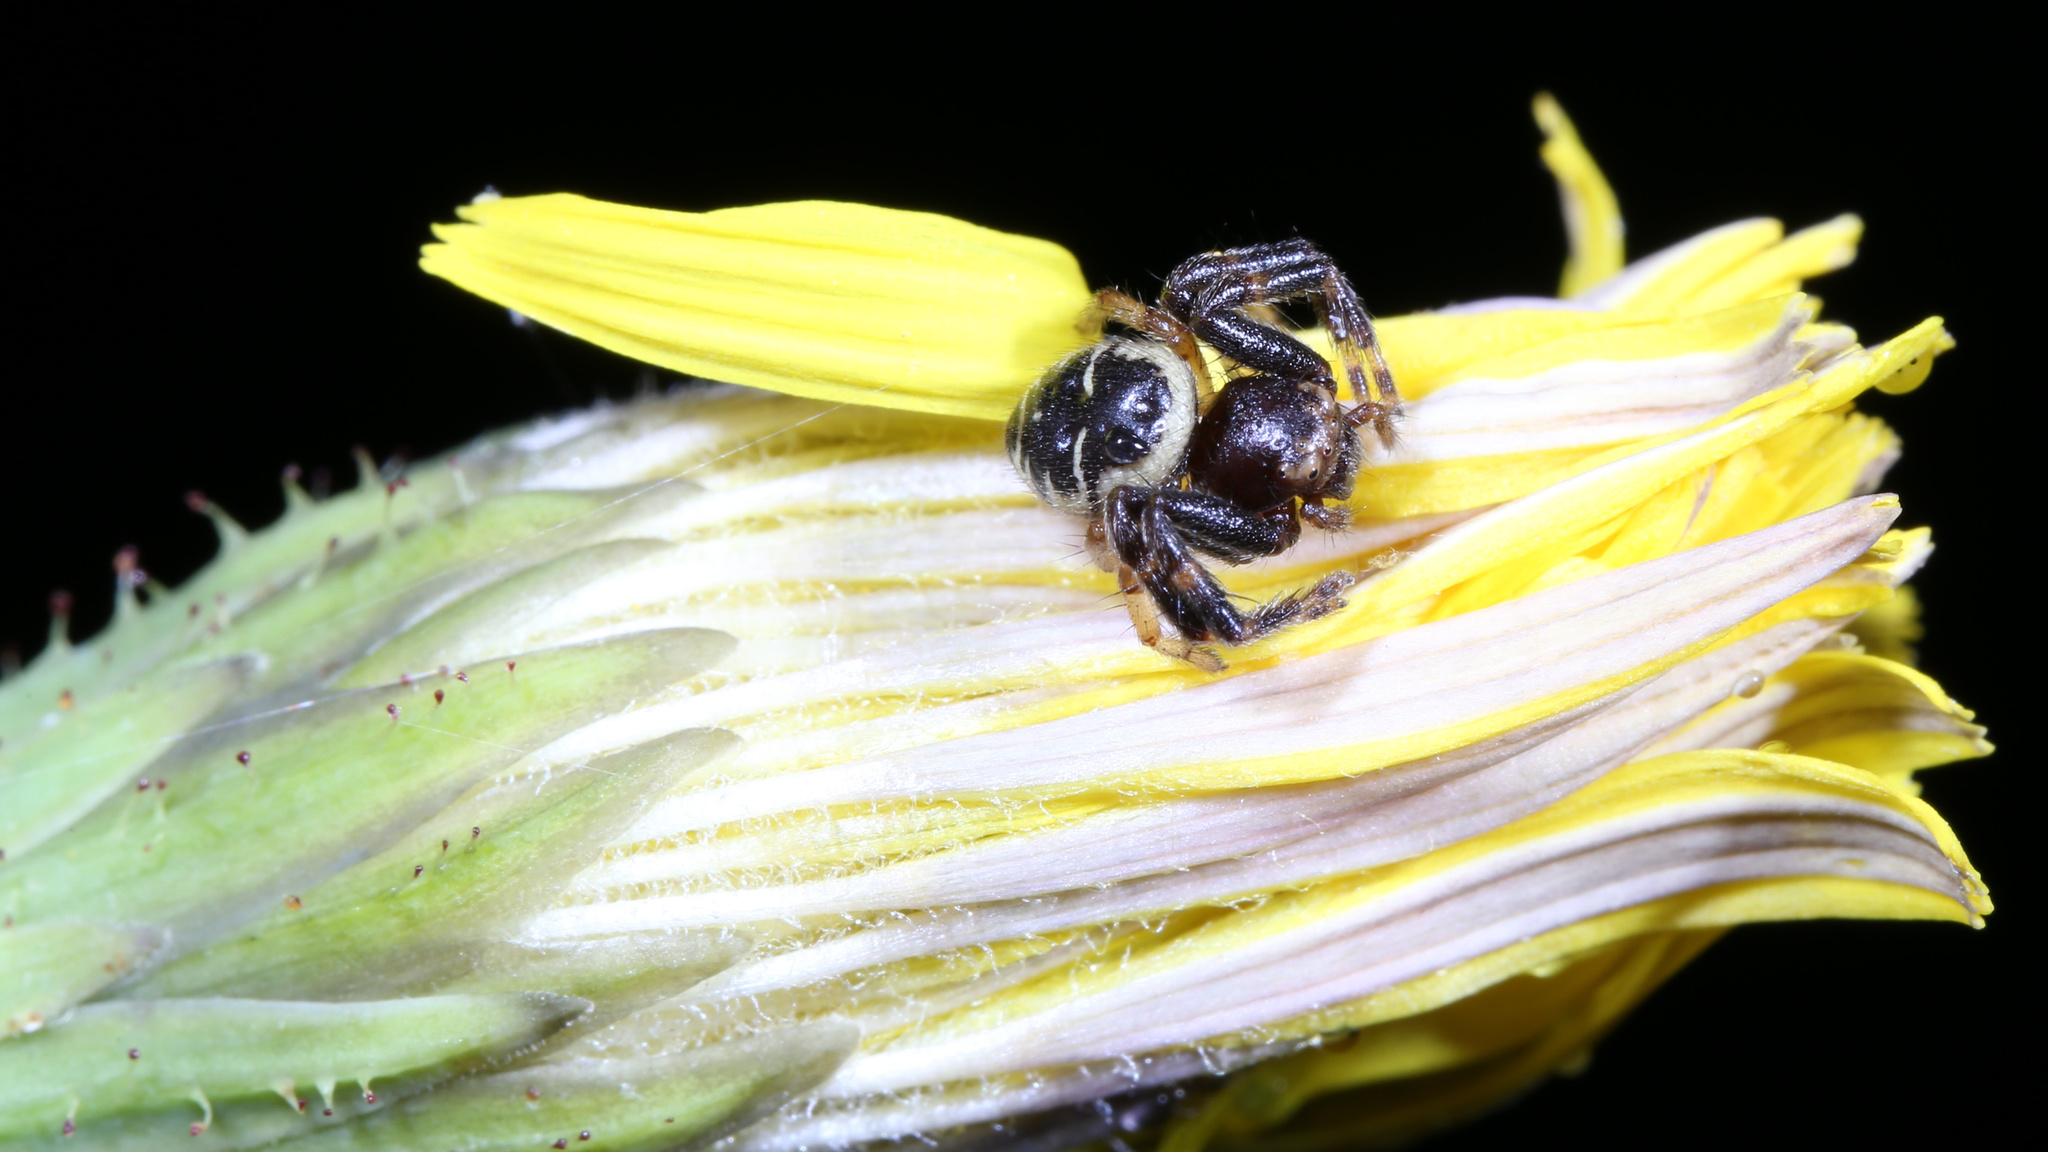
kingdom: Animalia
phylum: Arthropoda
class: Arachnida
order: Araneae
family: Thomisidae
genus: Synema
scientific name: Synema
